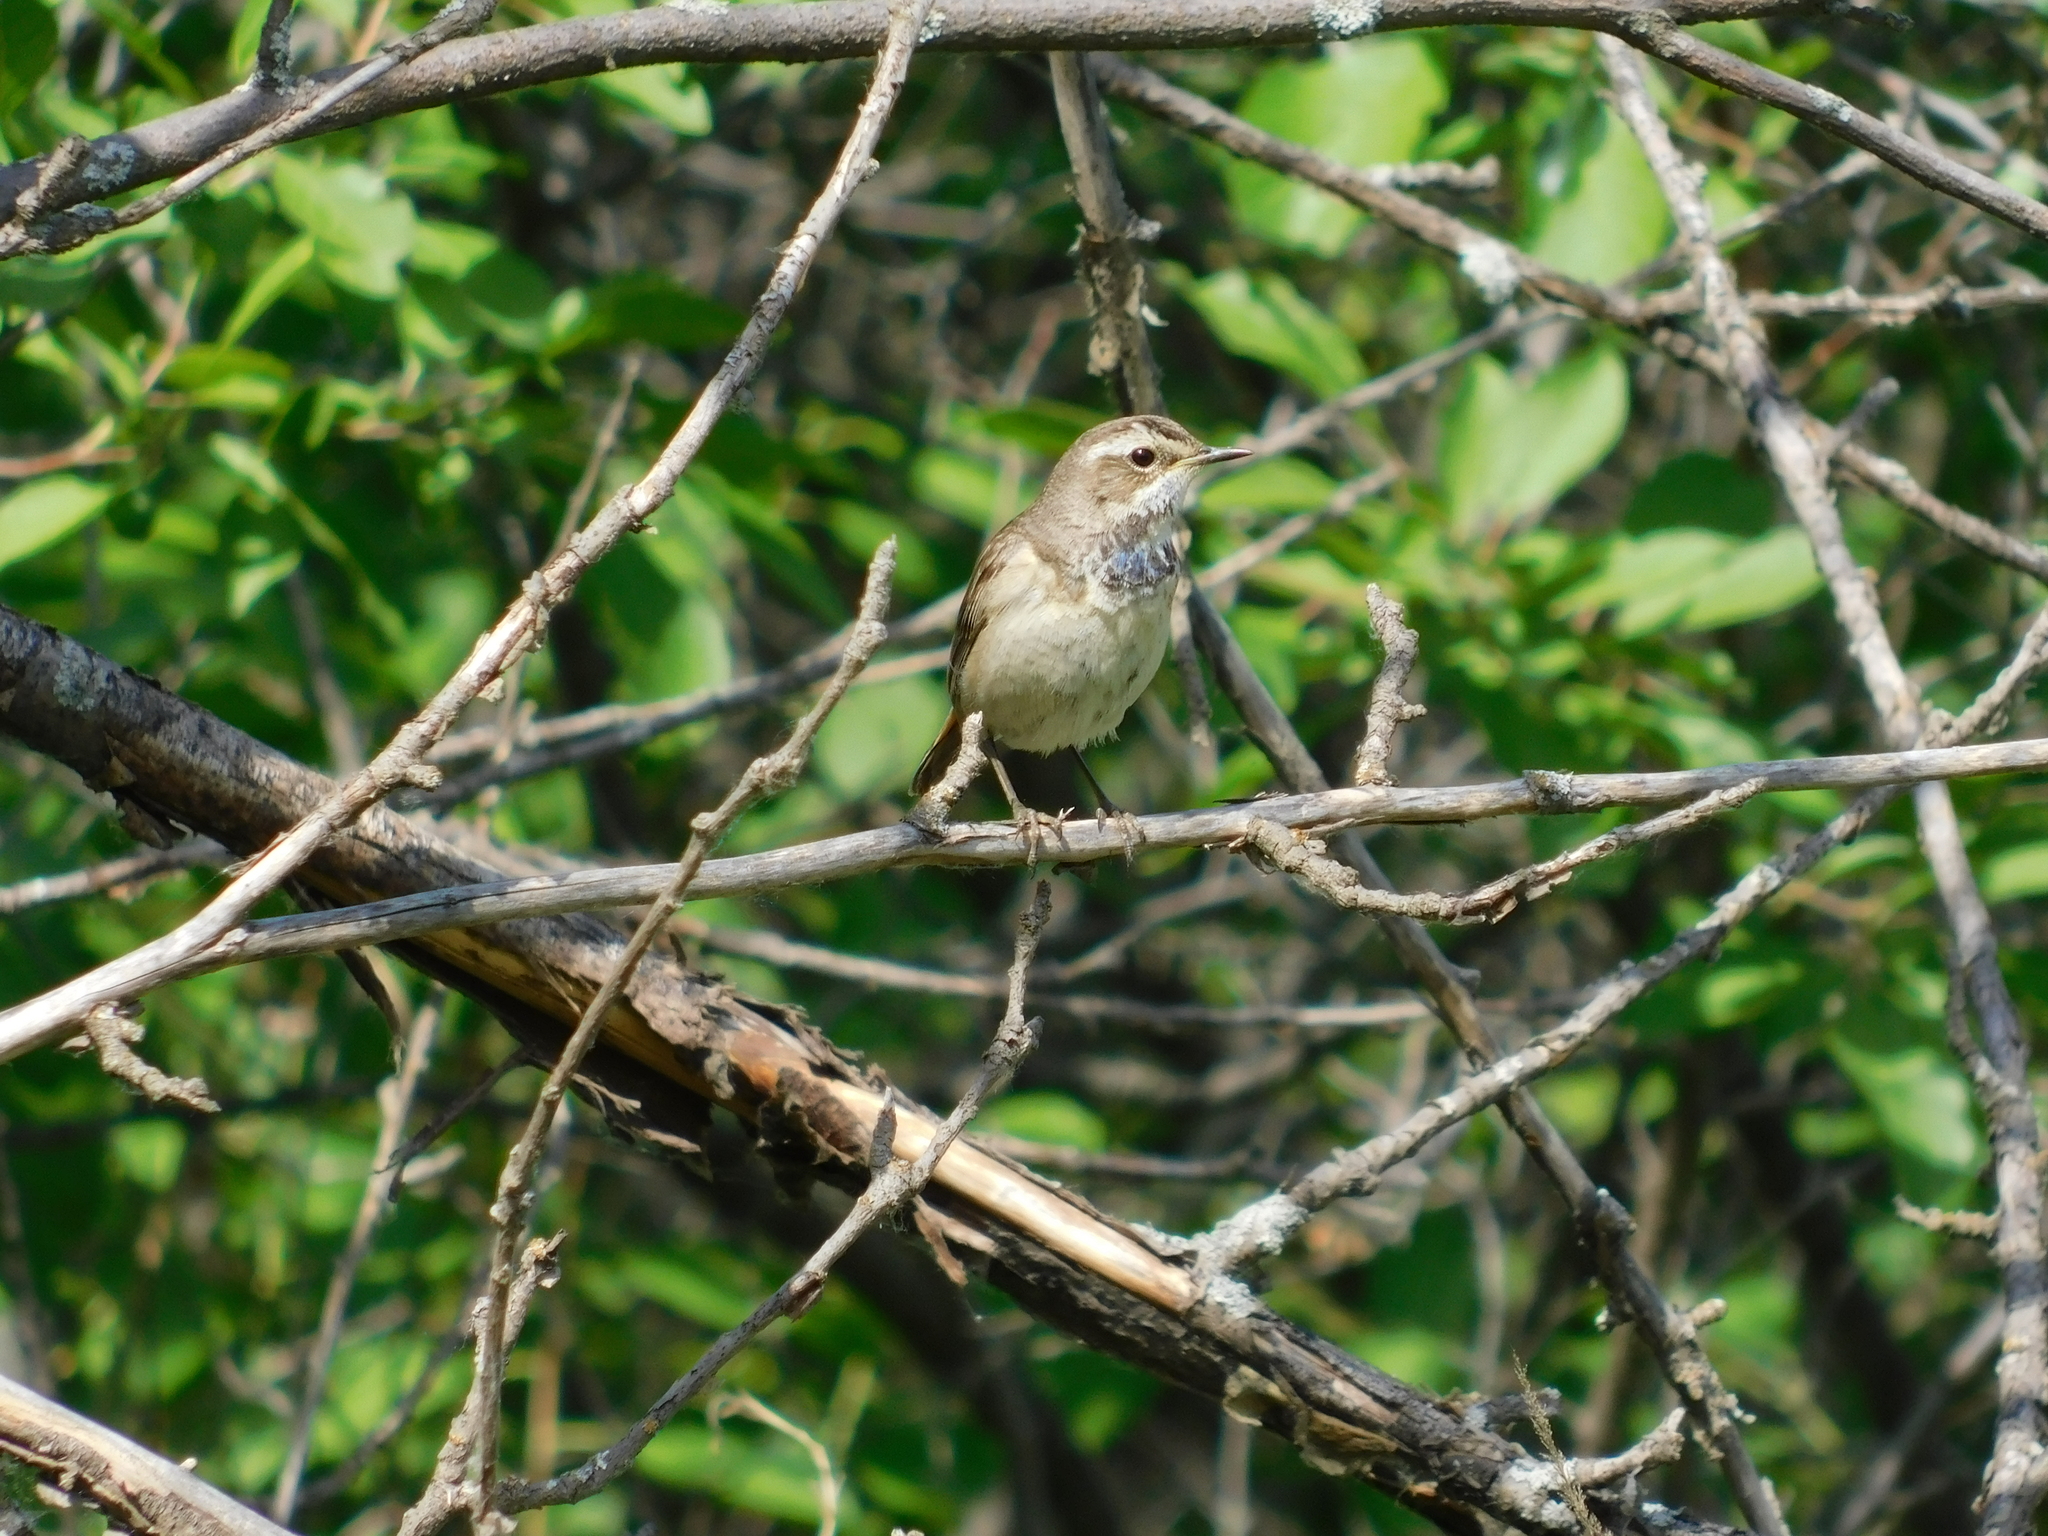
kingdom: Animalia
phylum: Chordata
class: Aves
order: Passeriformes
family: Muscicapidae
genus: Luscinia
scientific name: Luscinia svecica
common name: Bluethroat
